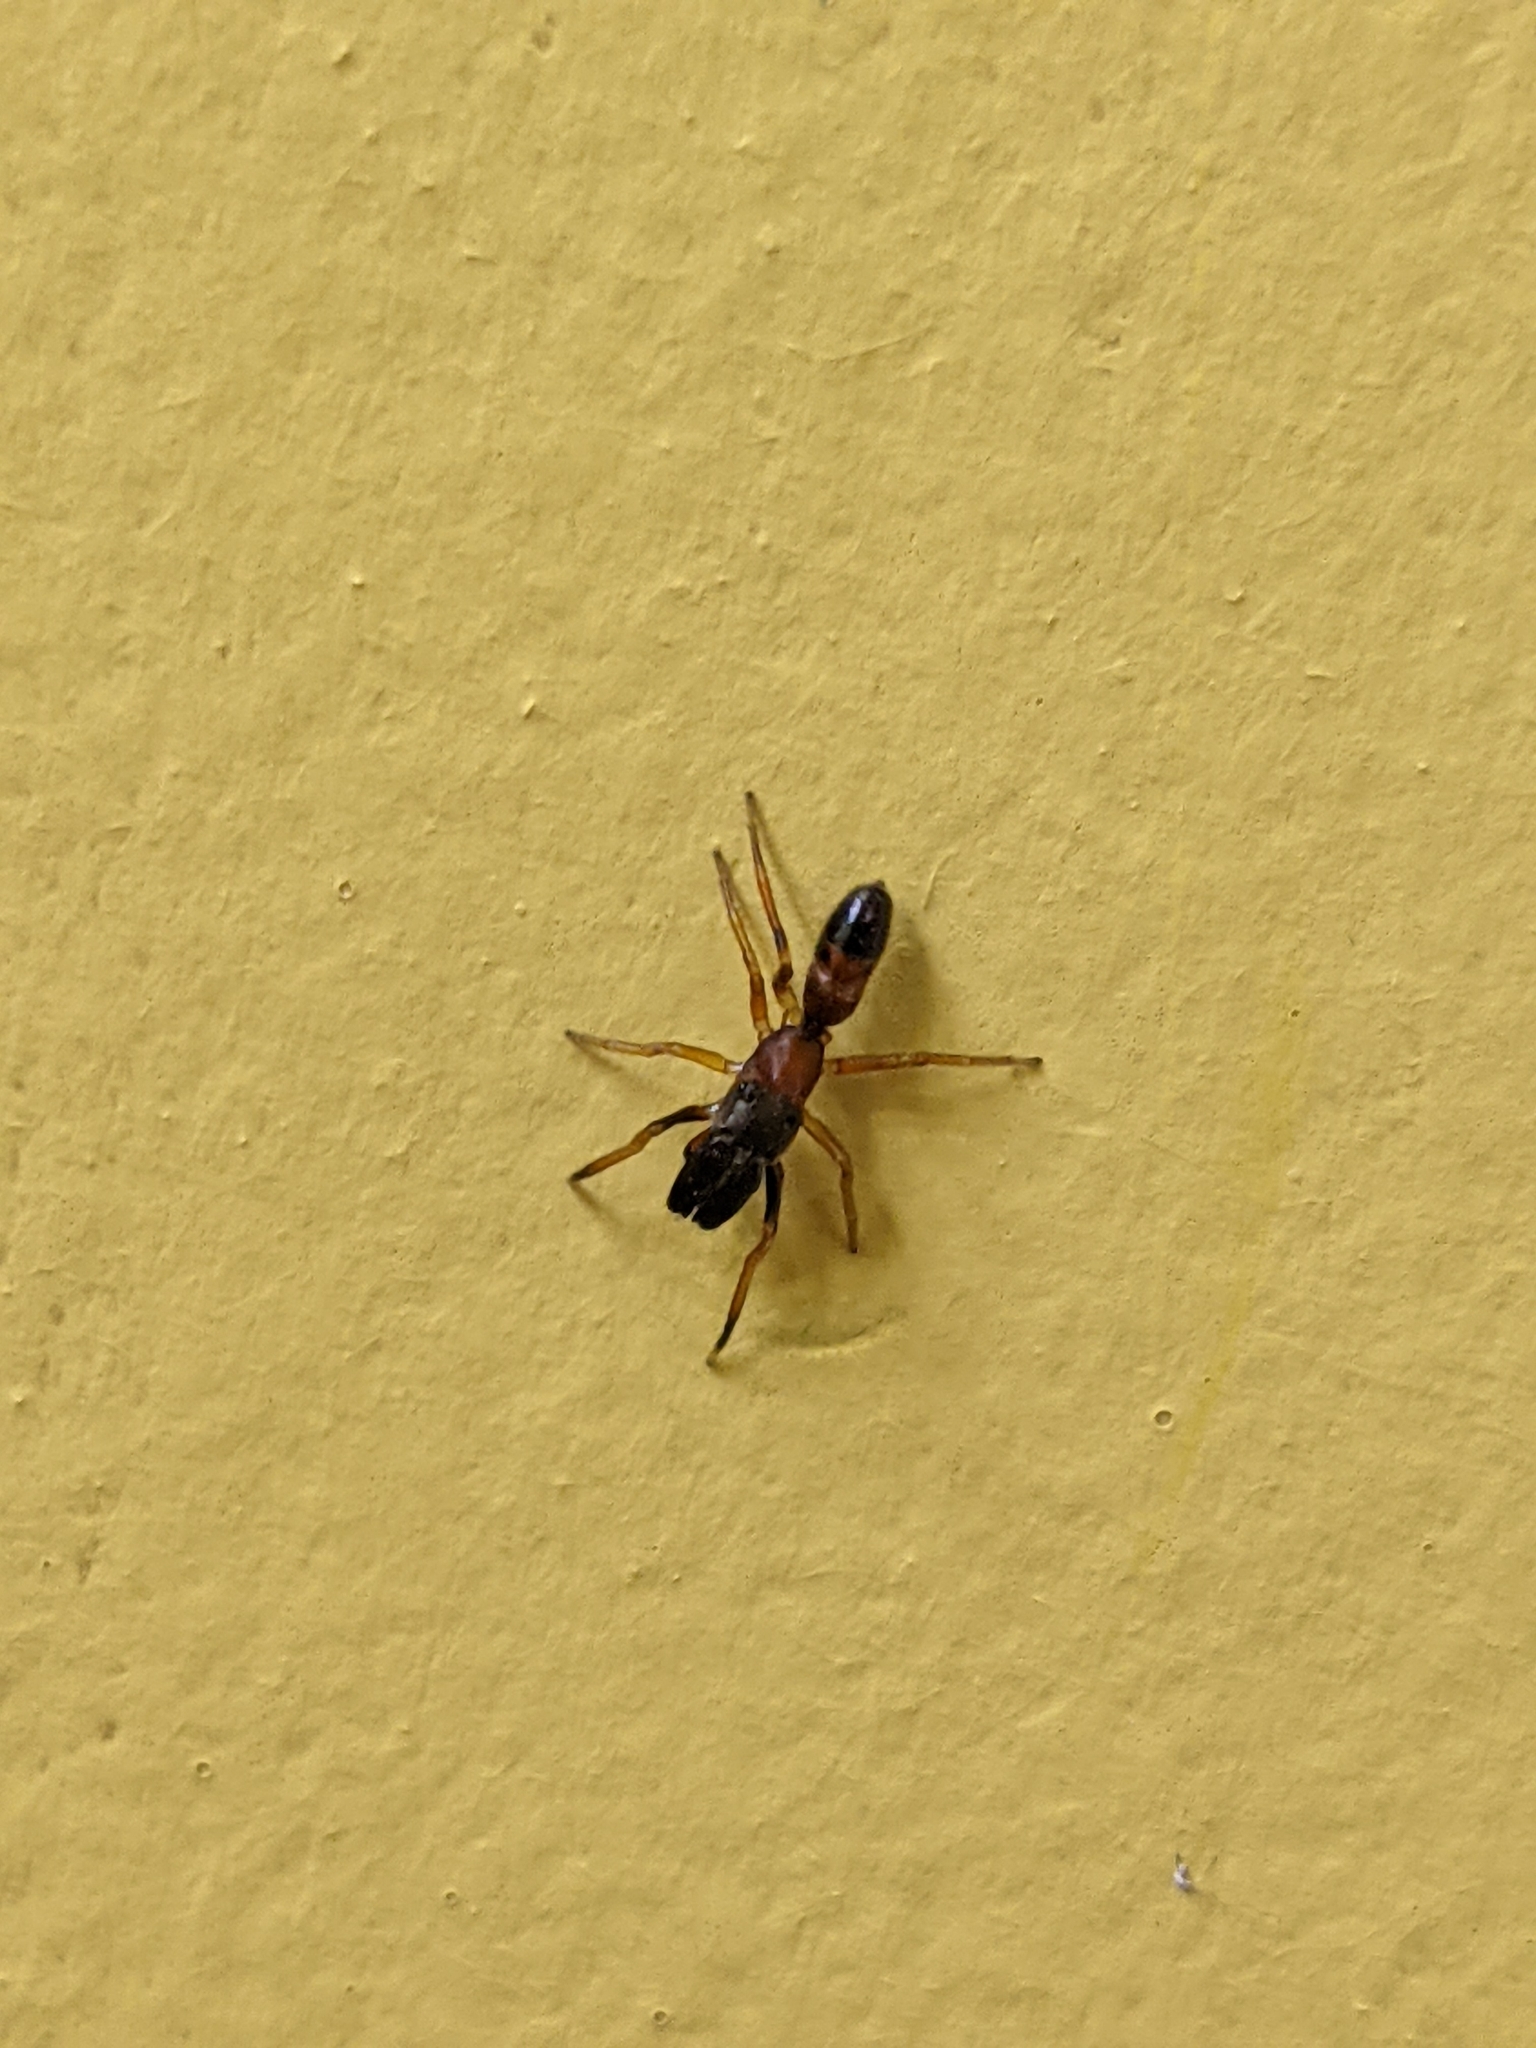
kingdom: Animalia
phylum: Arthropoda
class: Arachnida
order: Araneae
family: Salticidae
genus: Myrmarachne
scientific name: Myrmarachne formicaria
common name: Ant mimic jumping spider
